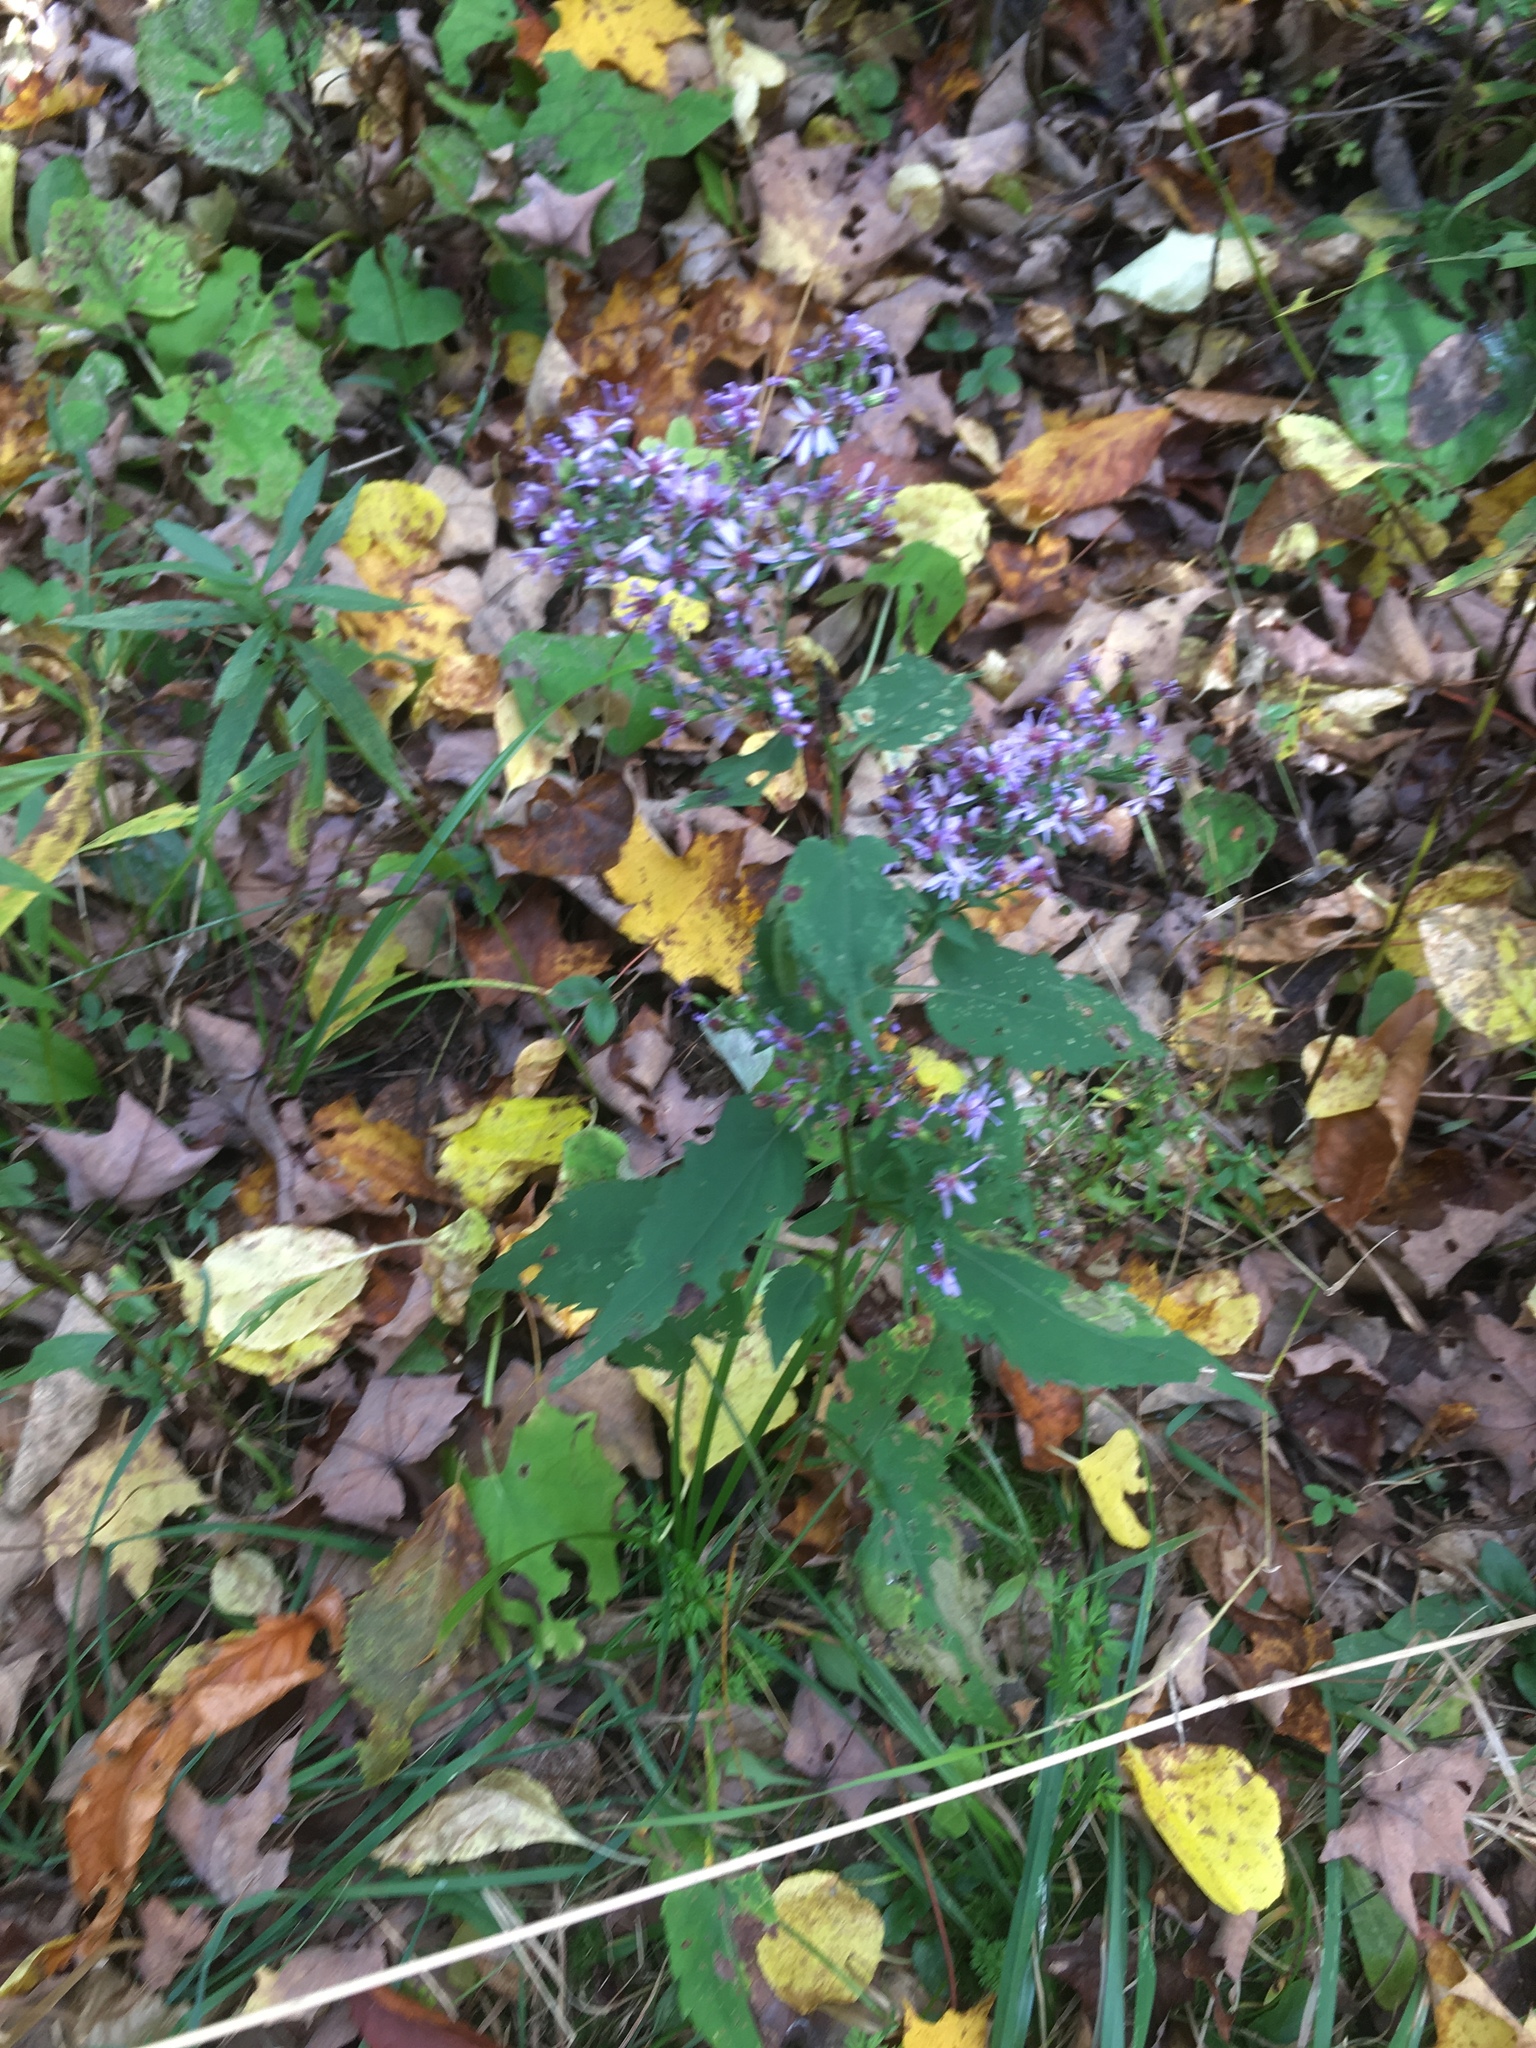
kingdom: Plantae
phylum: Tracheophyta
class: Magnoliopsida
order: Asterales
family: Asteraceae
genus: Symphyotrichum
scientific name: Symphyotrichum cordifolium
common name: Beeweed
